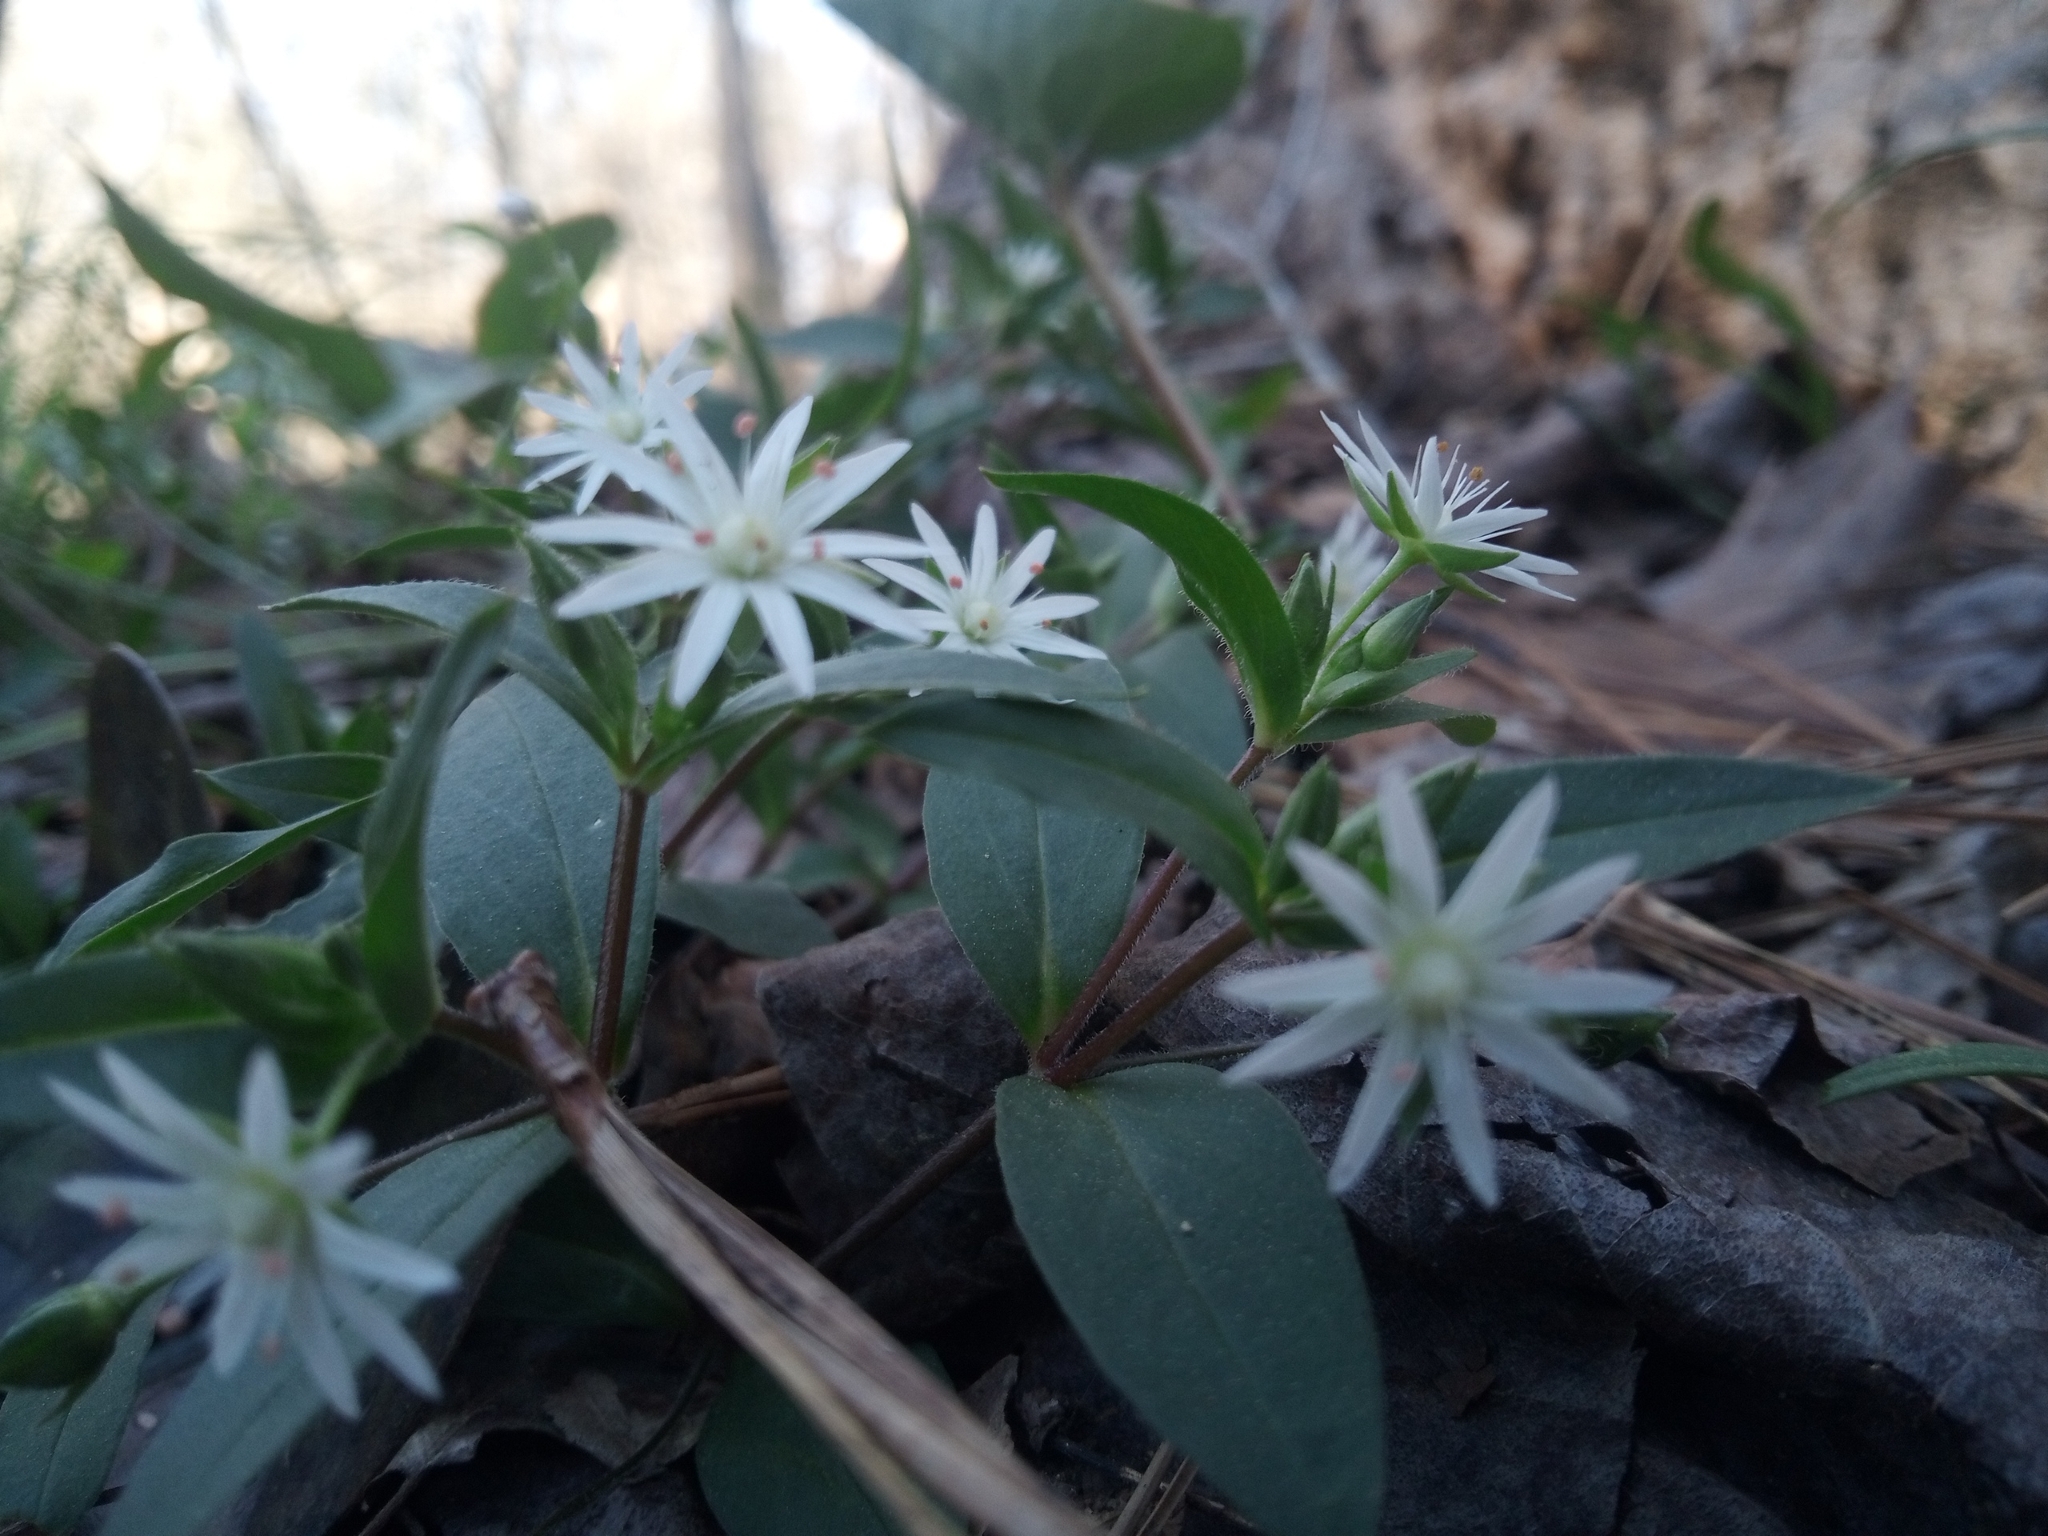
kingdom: Plantae
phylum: Tracheophyta
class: Magnoliopsida
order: Caryophyllales
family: Caryophyllaceae
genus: Stellaria
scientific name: Stellaria pubera
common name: Star chickweed
